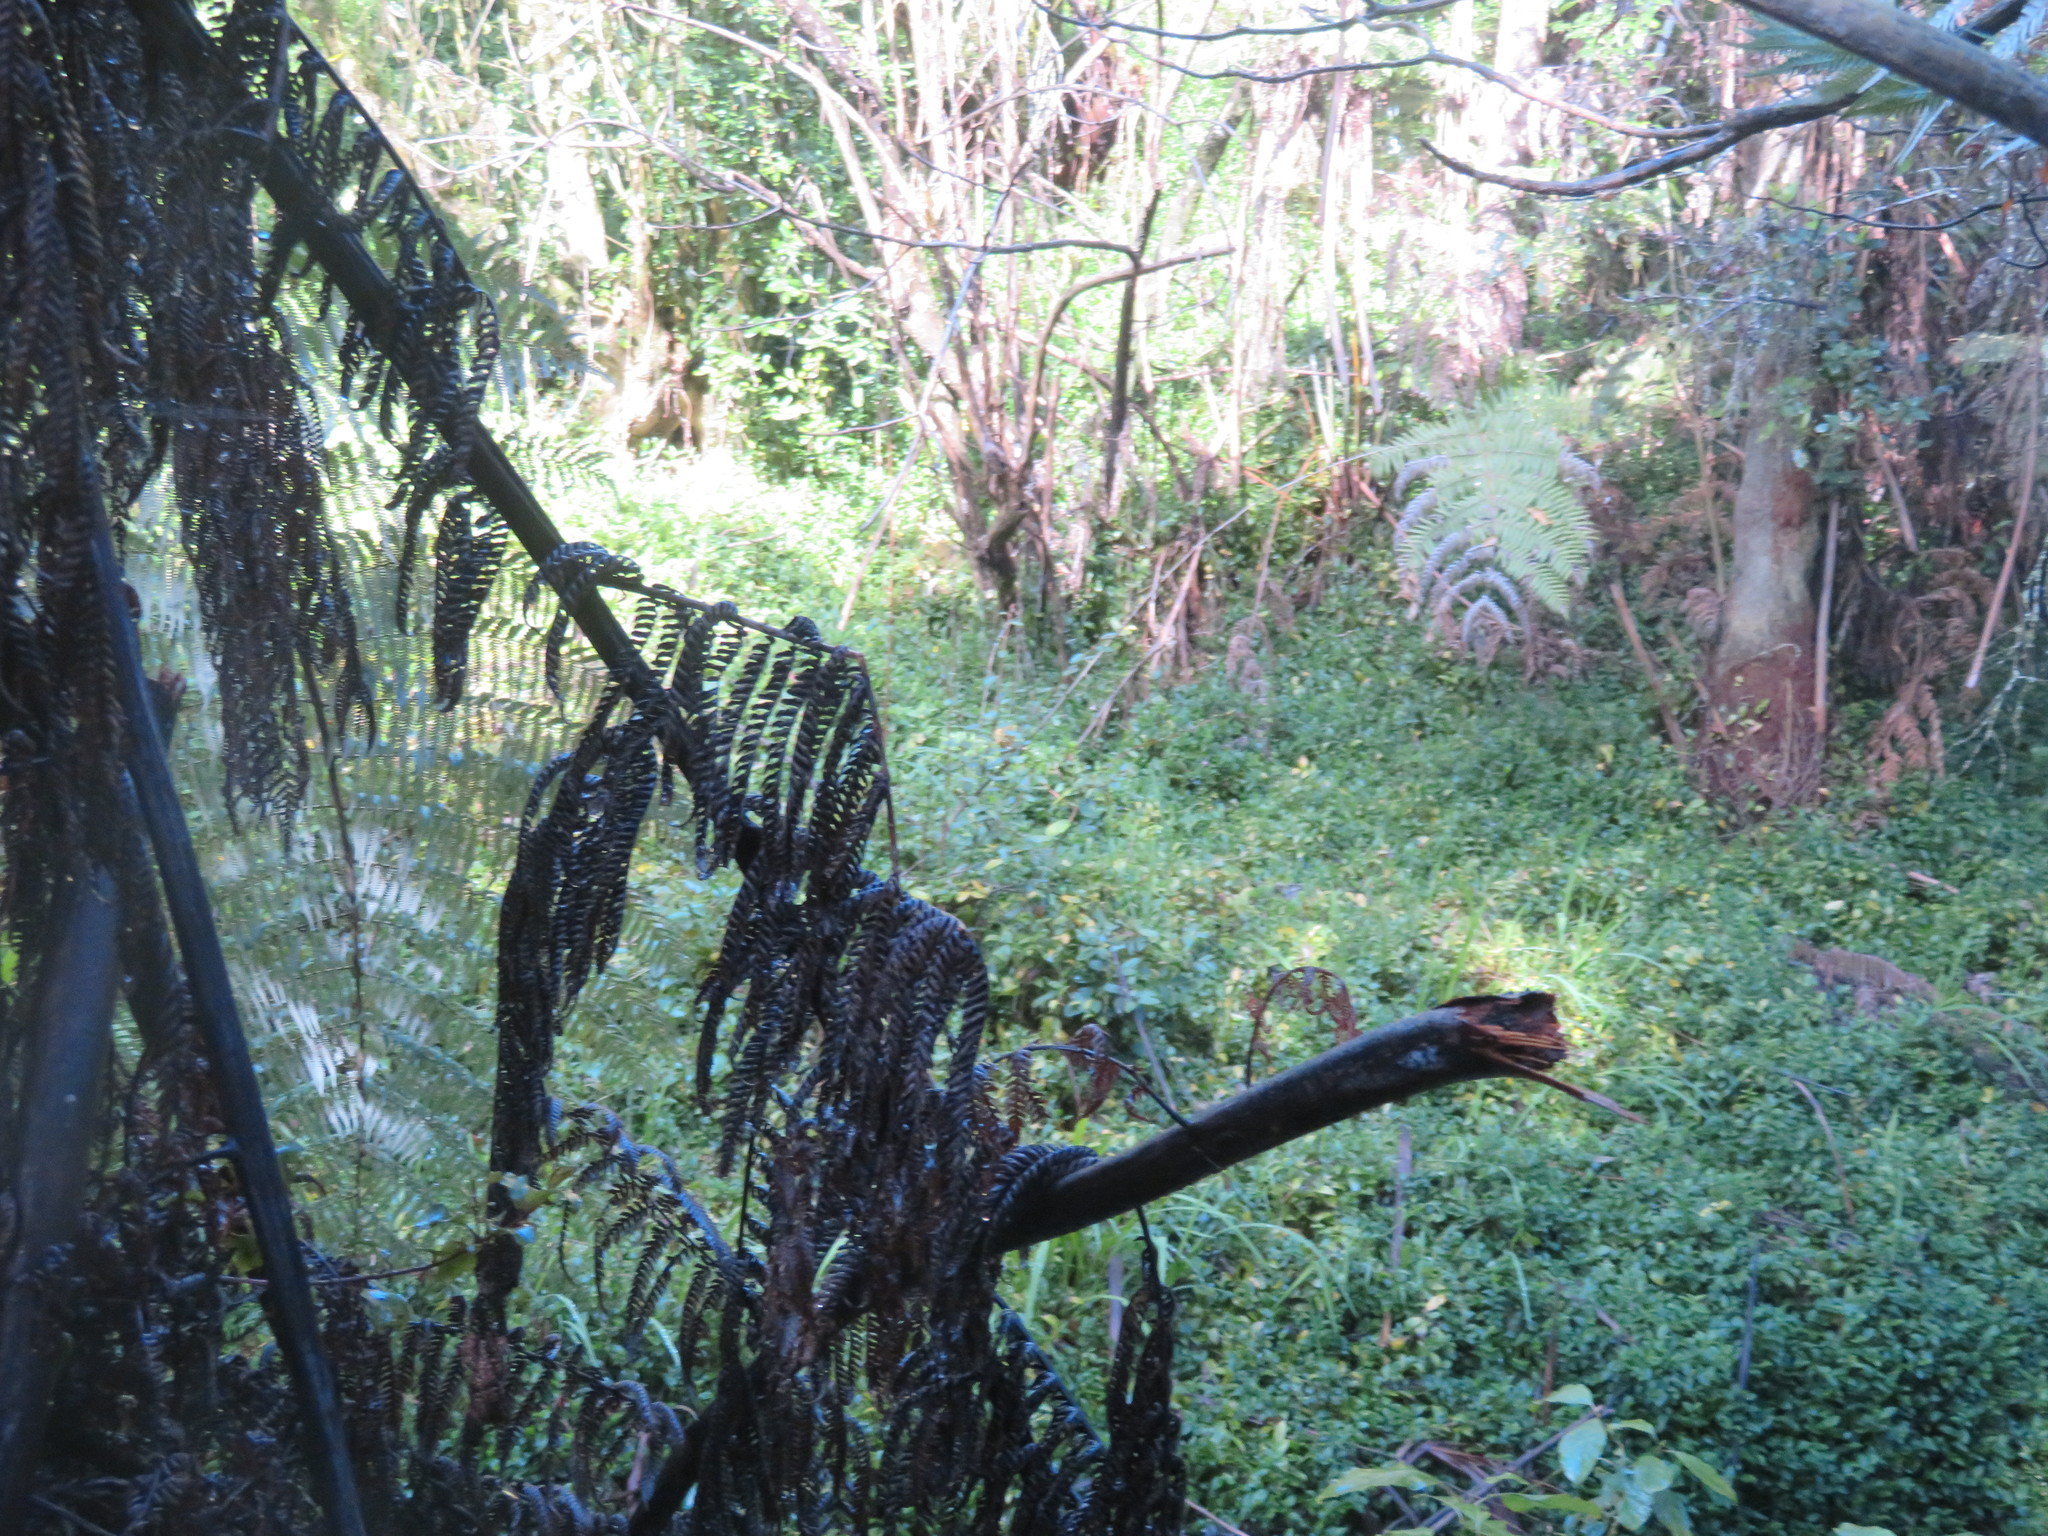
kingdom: Plantae
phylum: Tracheophyta
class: Liliopsida
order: Commelinales
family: Commelinaceae
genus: Tradescantia
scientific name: Tradescantia fluminensis
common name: Wandering-jew
